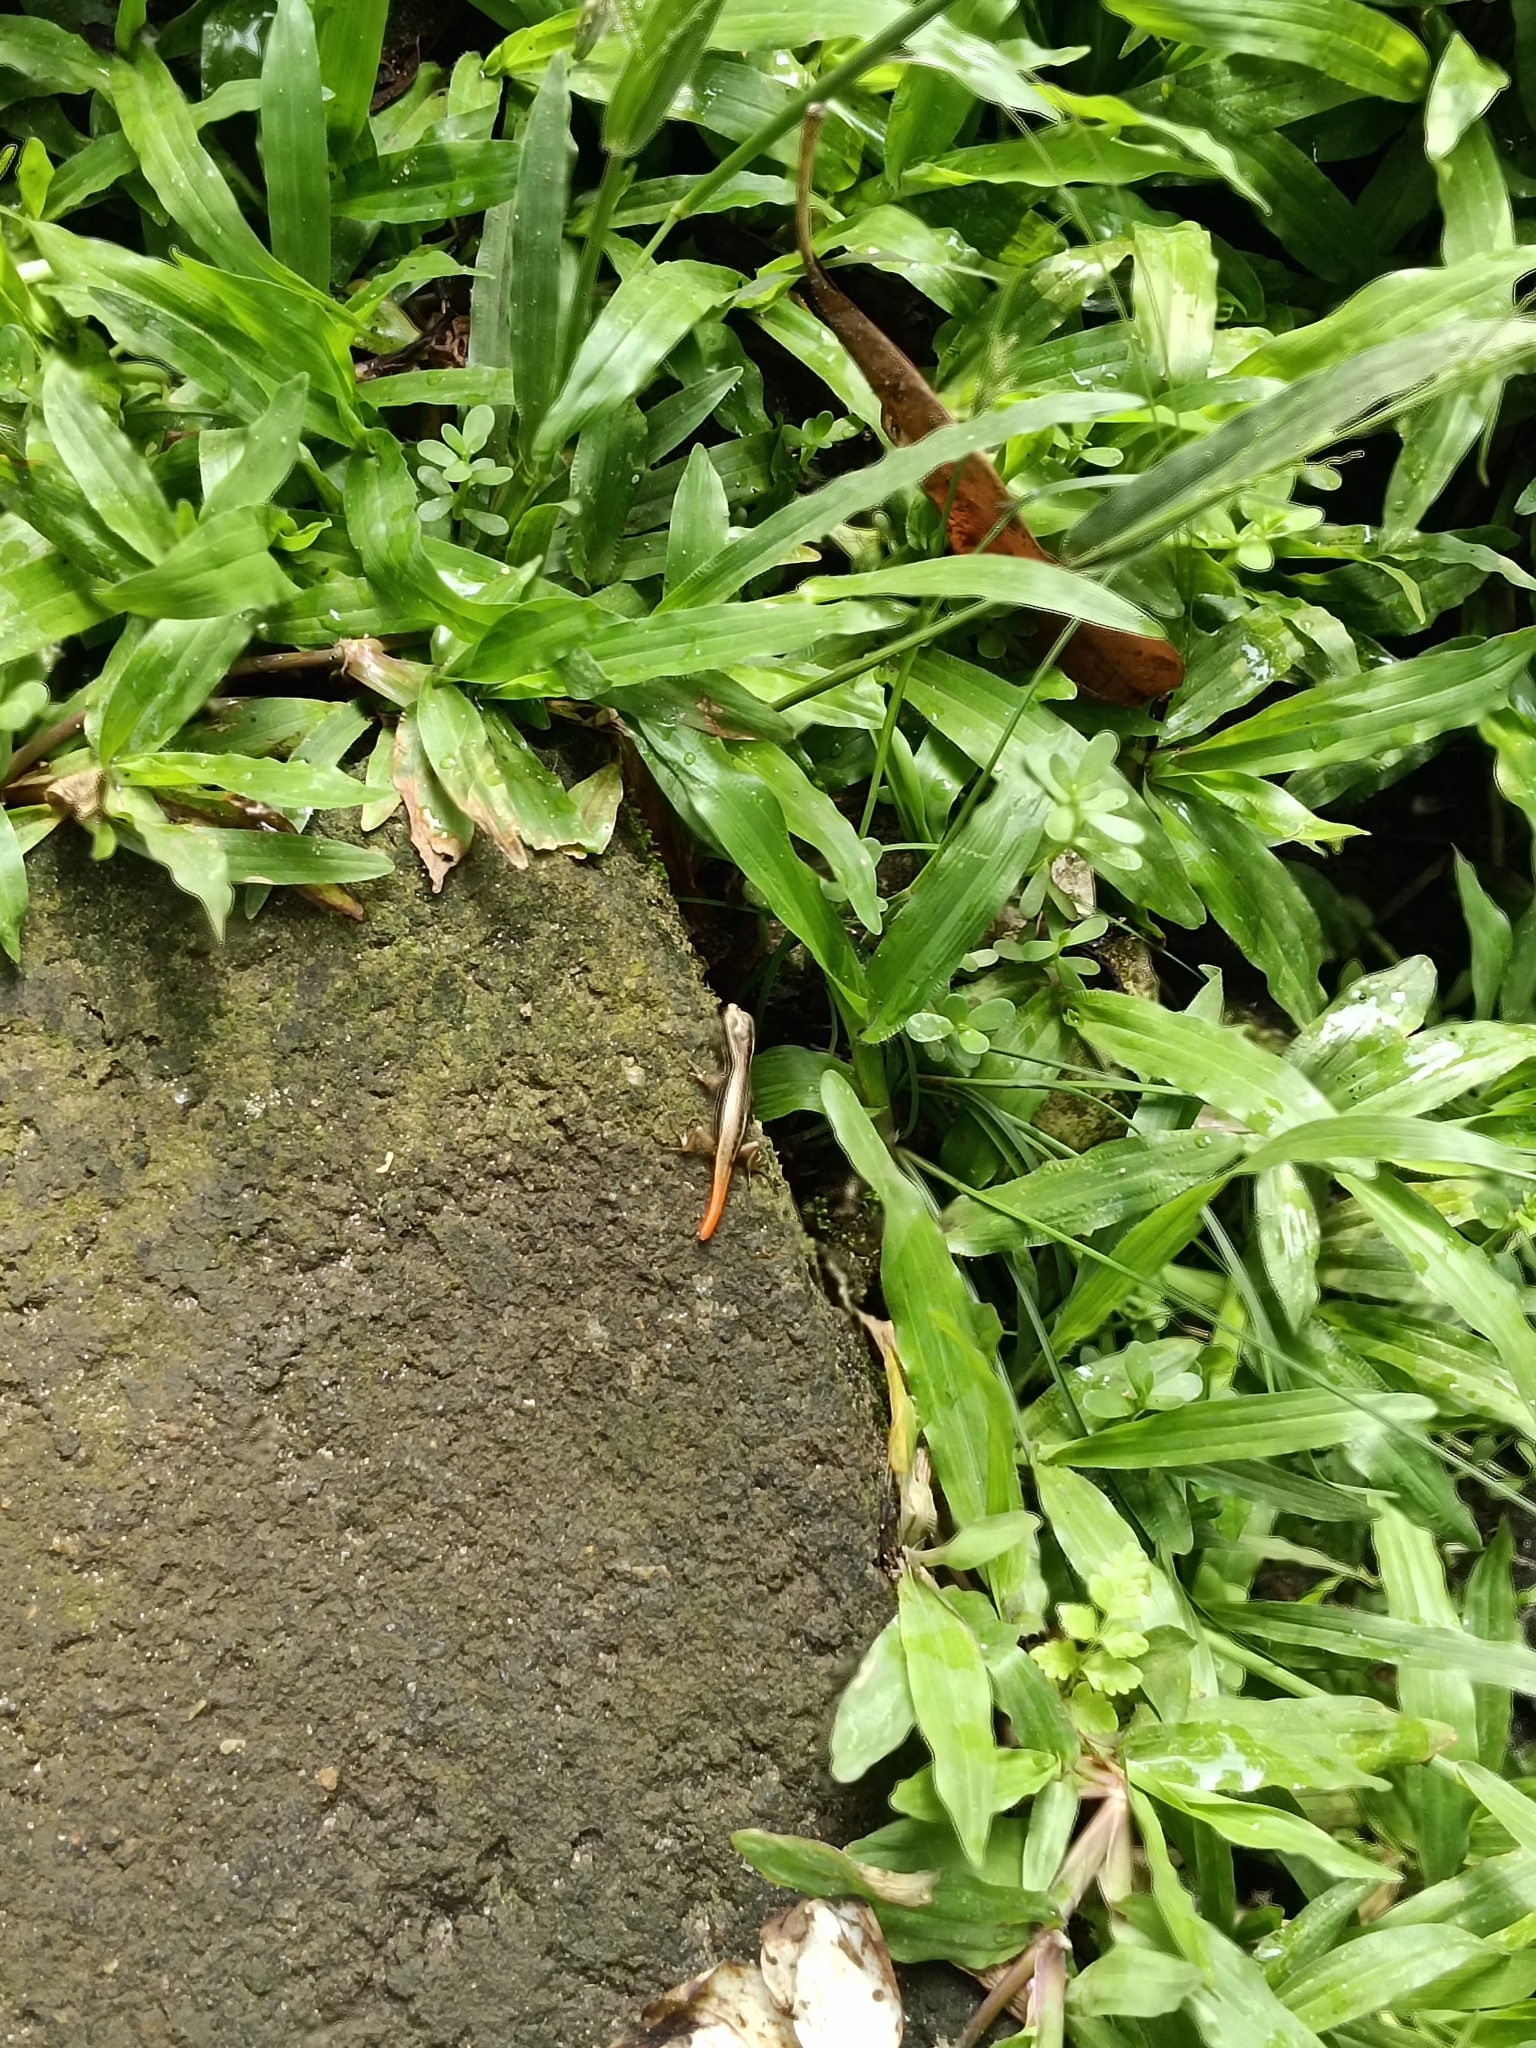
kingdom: Animalia
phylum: Chordata
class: Squamata
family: Scincidae
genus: Sphenomorphus
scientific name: Sphenomorphus dussumieri
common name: Dussumier's forest skink
